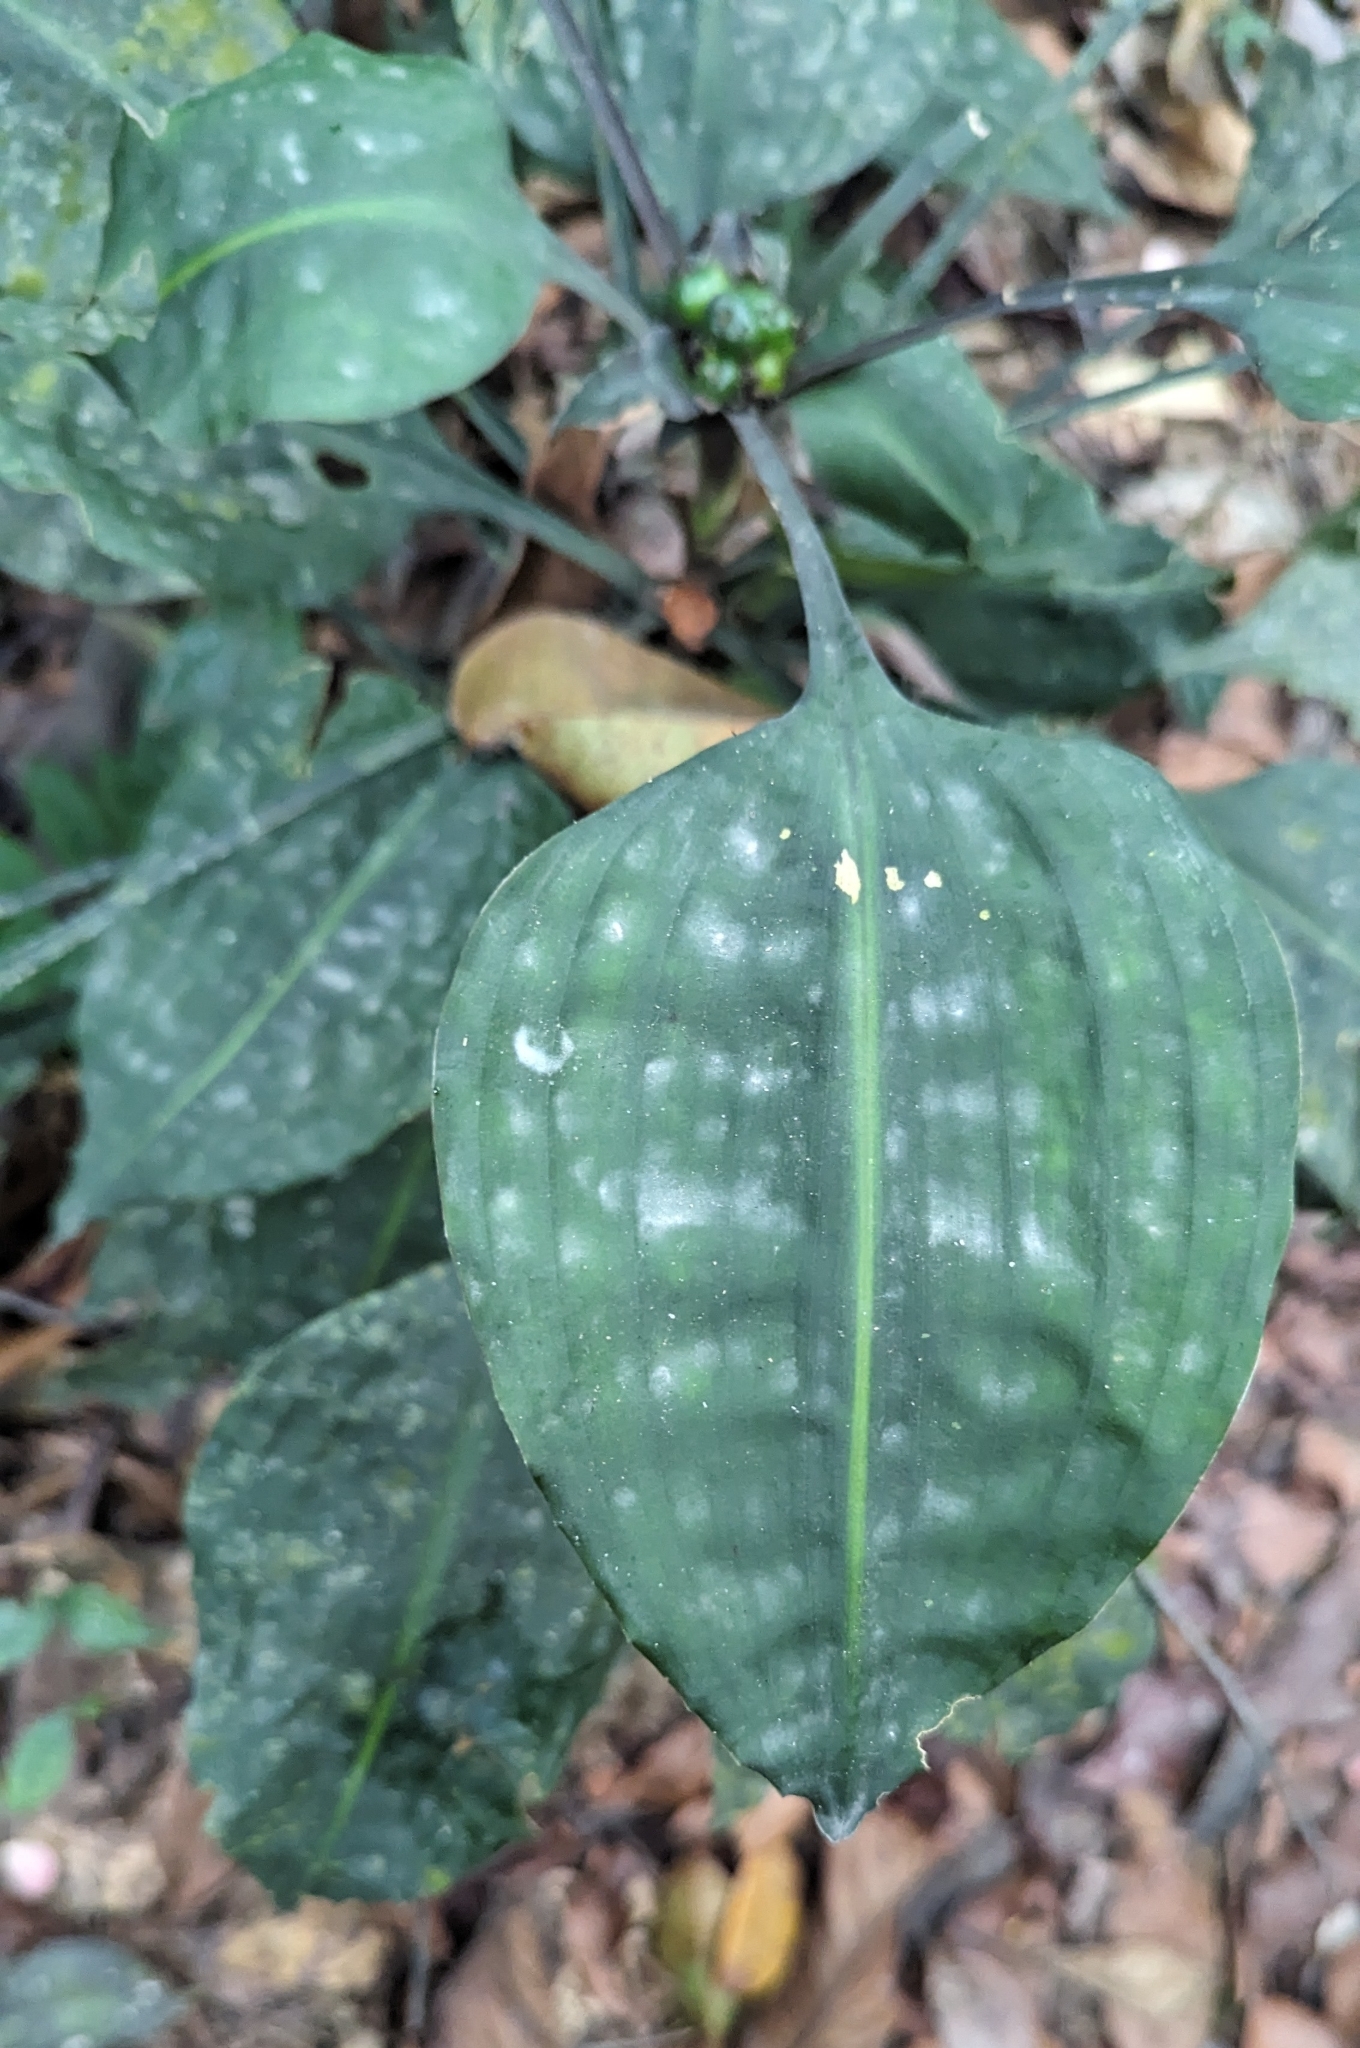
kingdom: Plantae
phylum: Tracheophyta
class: Liliopsida
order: Asparagales
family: Asparagaceae
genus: Dracaena
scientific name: Dracaena cristula
